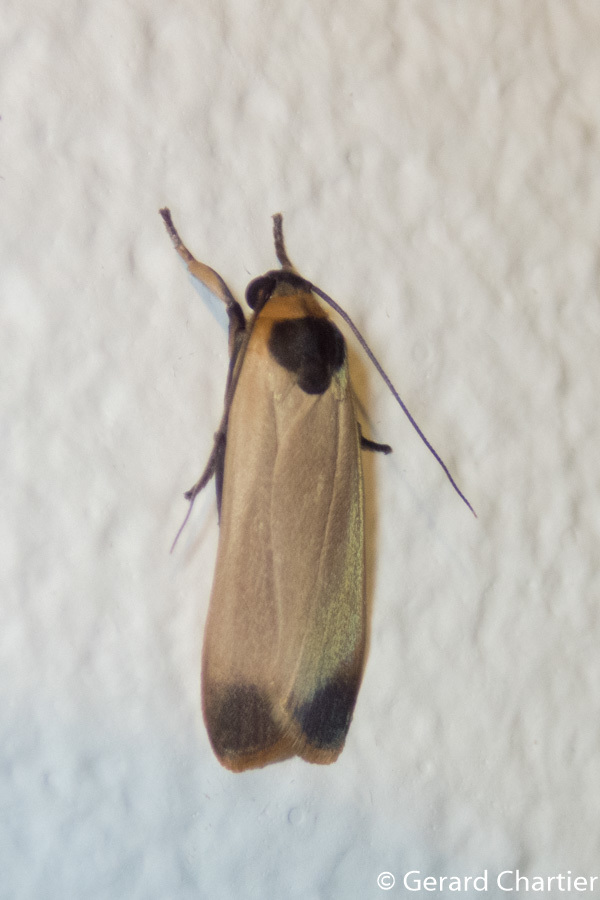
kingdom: Animalia
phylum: Arthropoda
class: Insecta
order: Lepidoptera
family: Erebidae
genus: Brunia
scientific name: Brunia
